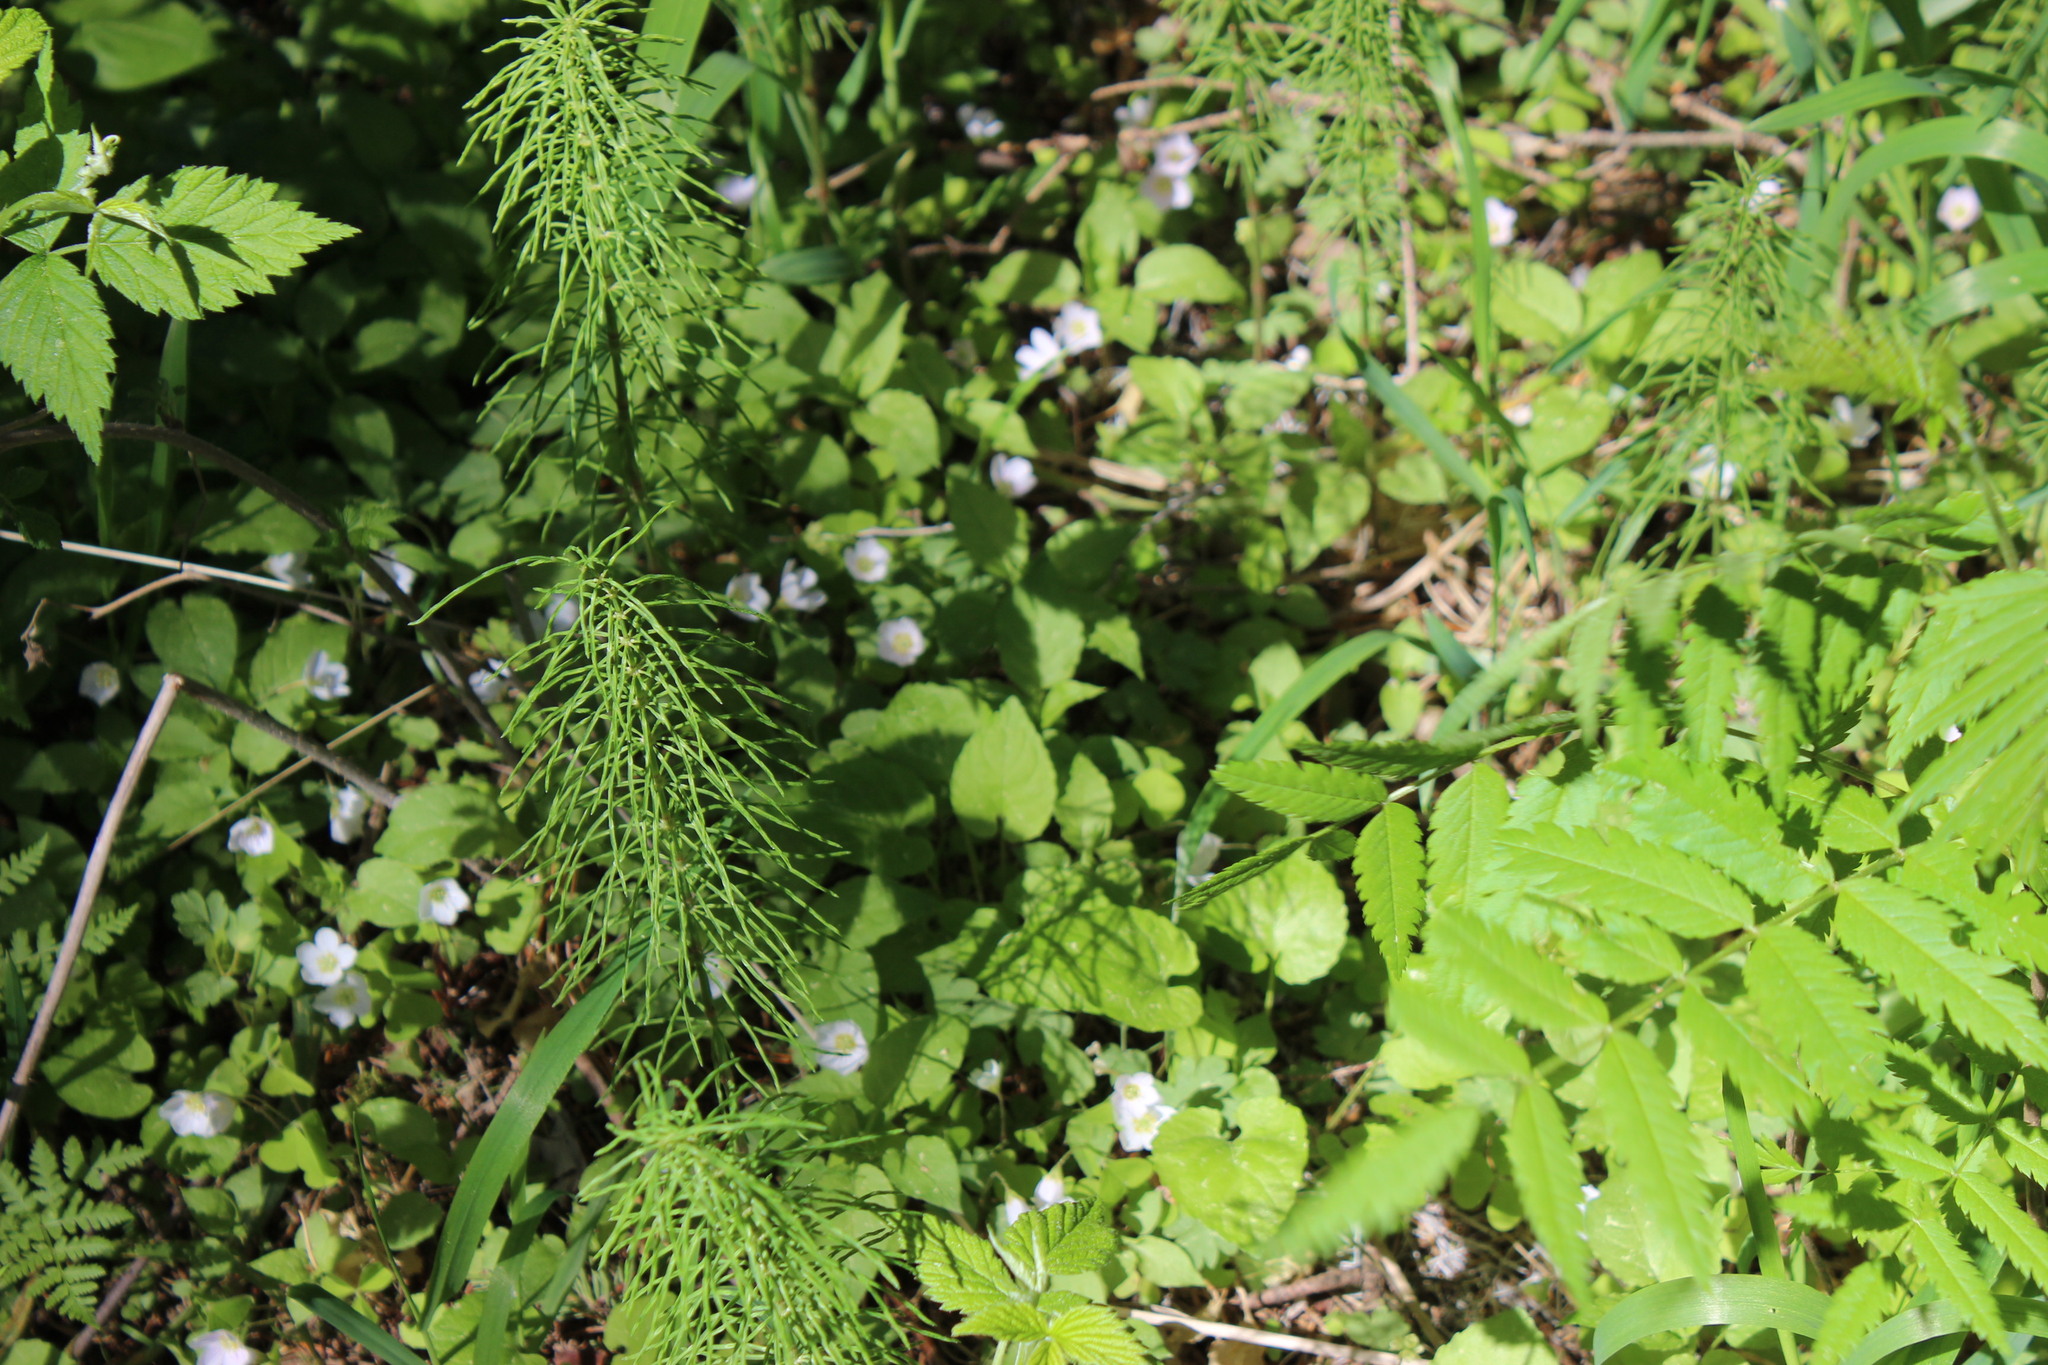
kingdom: Plantae
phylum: Tracheophyta
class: Polypodiopsida
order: Equisetales
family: Equisetaceae
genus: Equisetum
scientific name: Equisetum pratense
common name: Meadow horsetail
